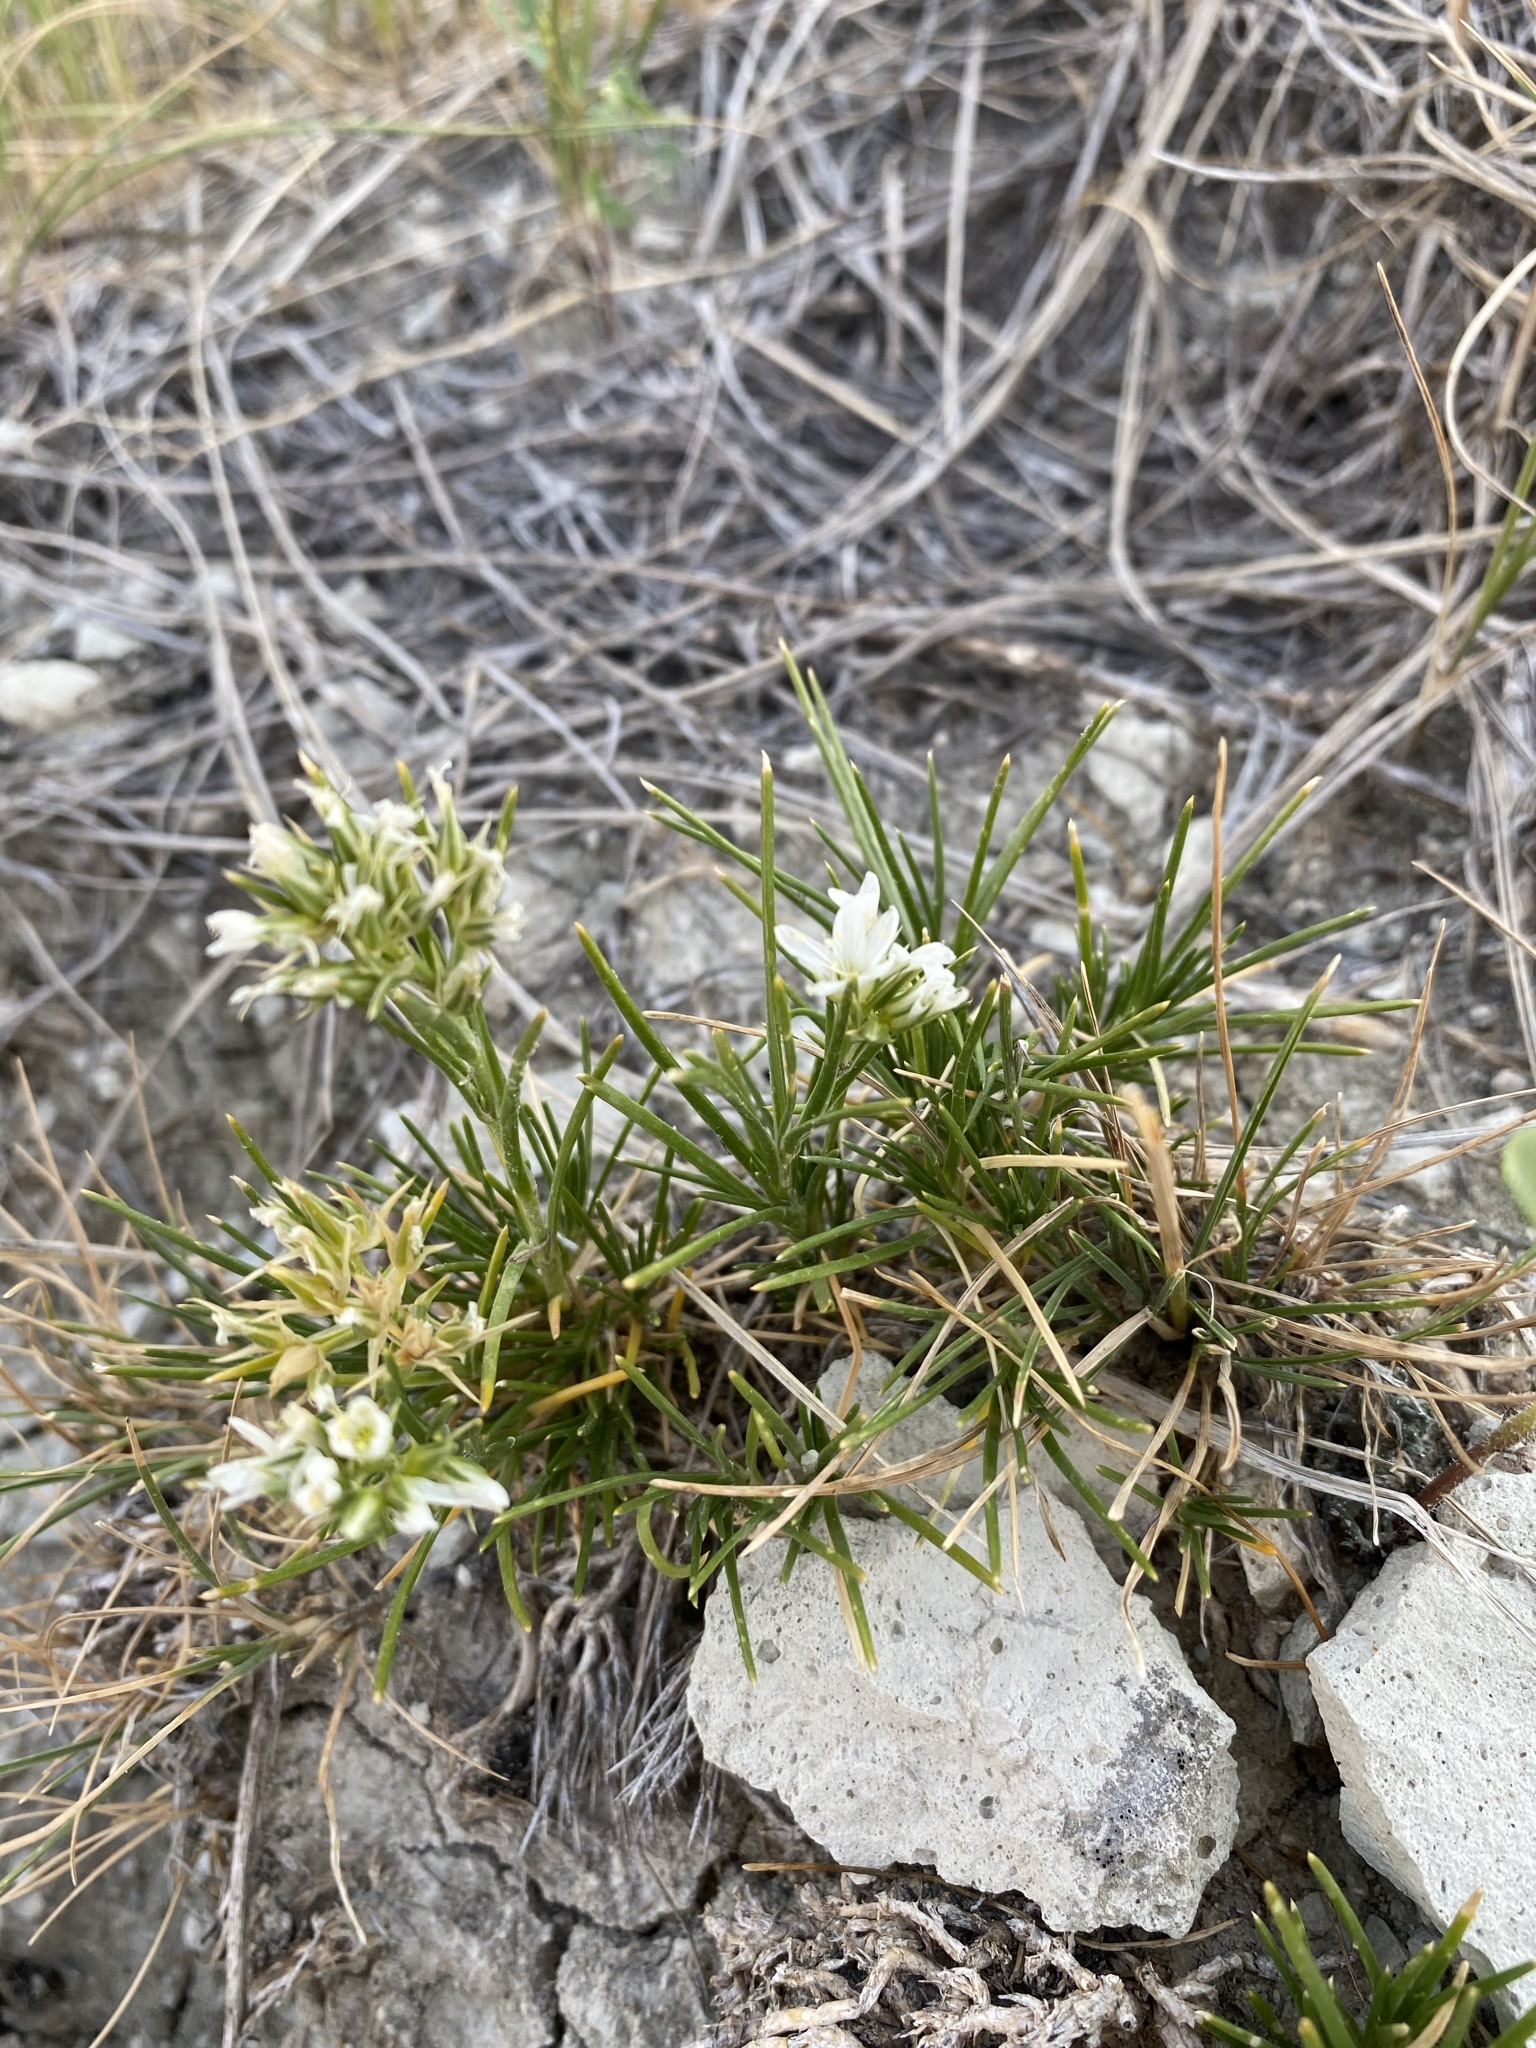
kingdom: Plantae
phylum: Tracheophyta
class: Magnoliopsida
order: Caryophyllales
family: Caryophyllaceae
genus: Eremogone
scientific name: Eremogone hookeri
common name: Hooker's sandwort
